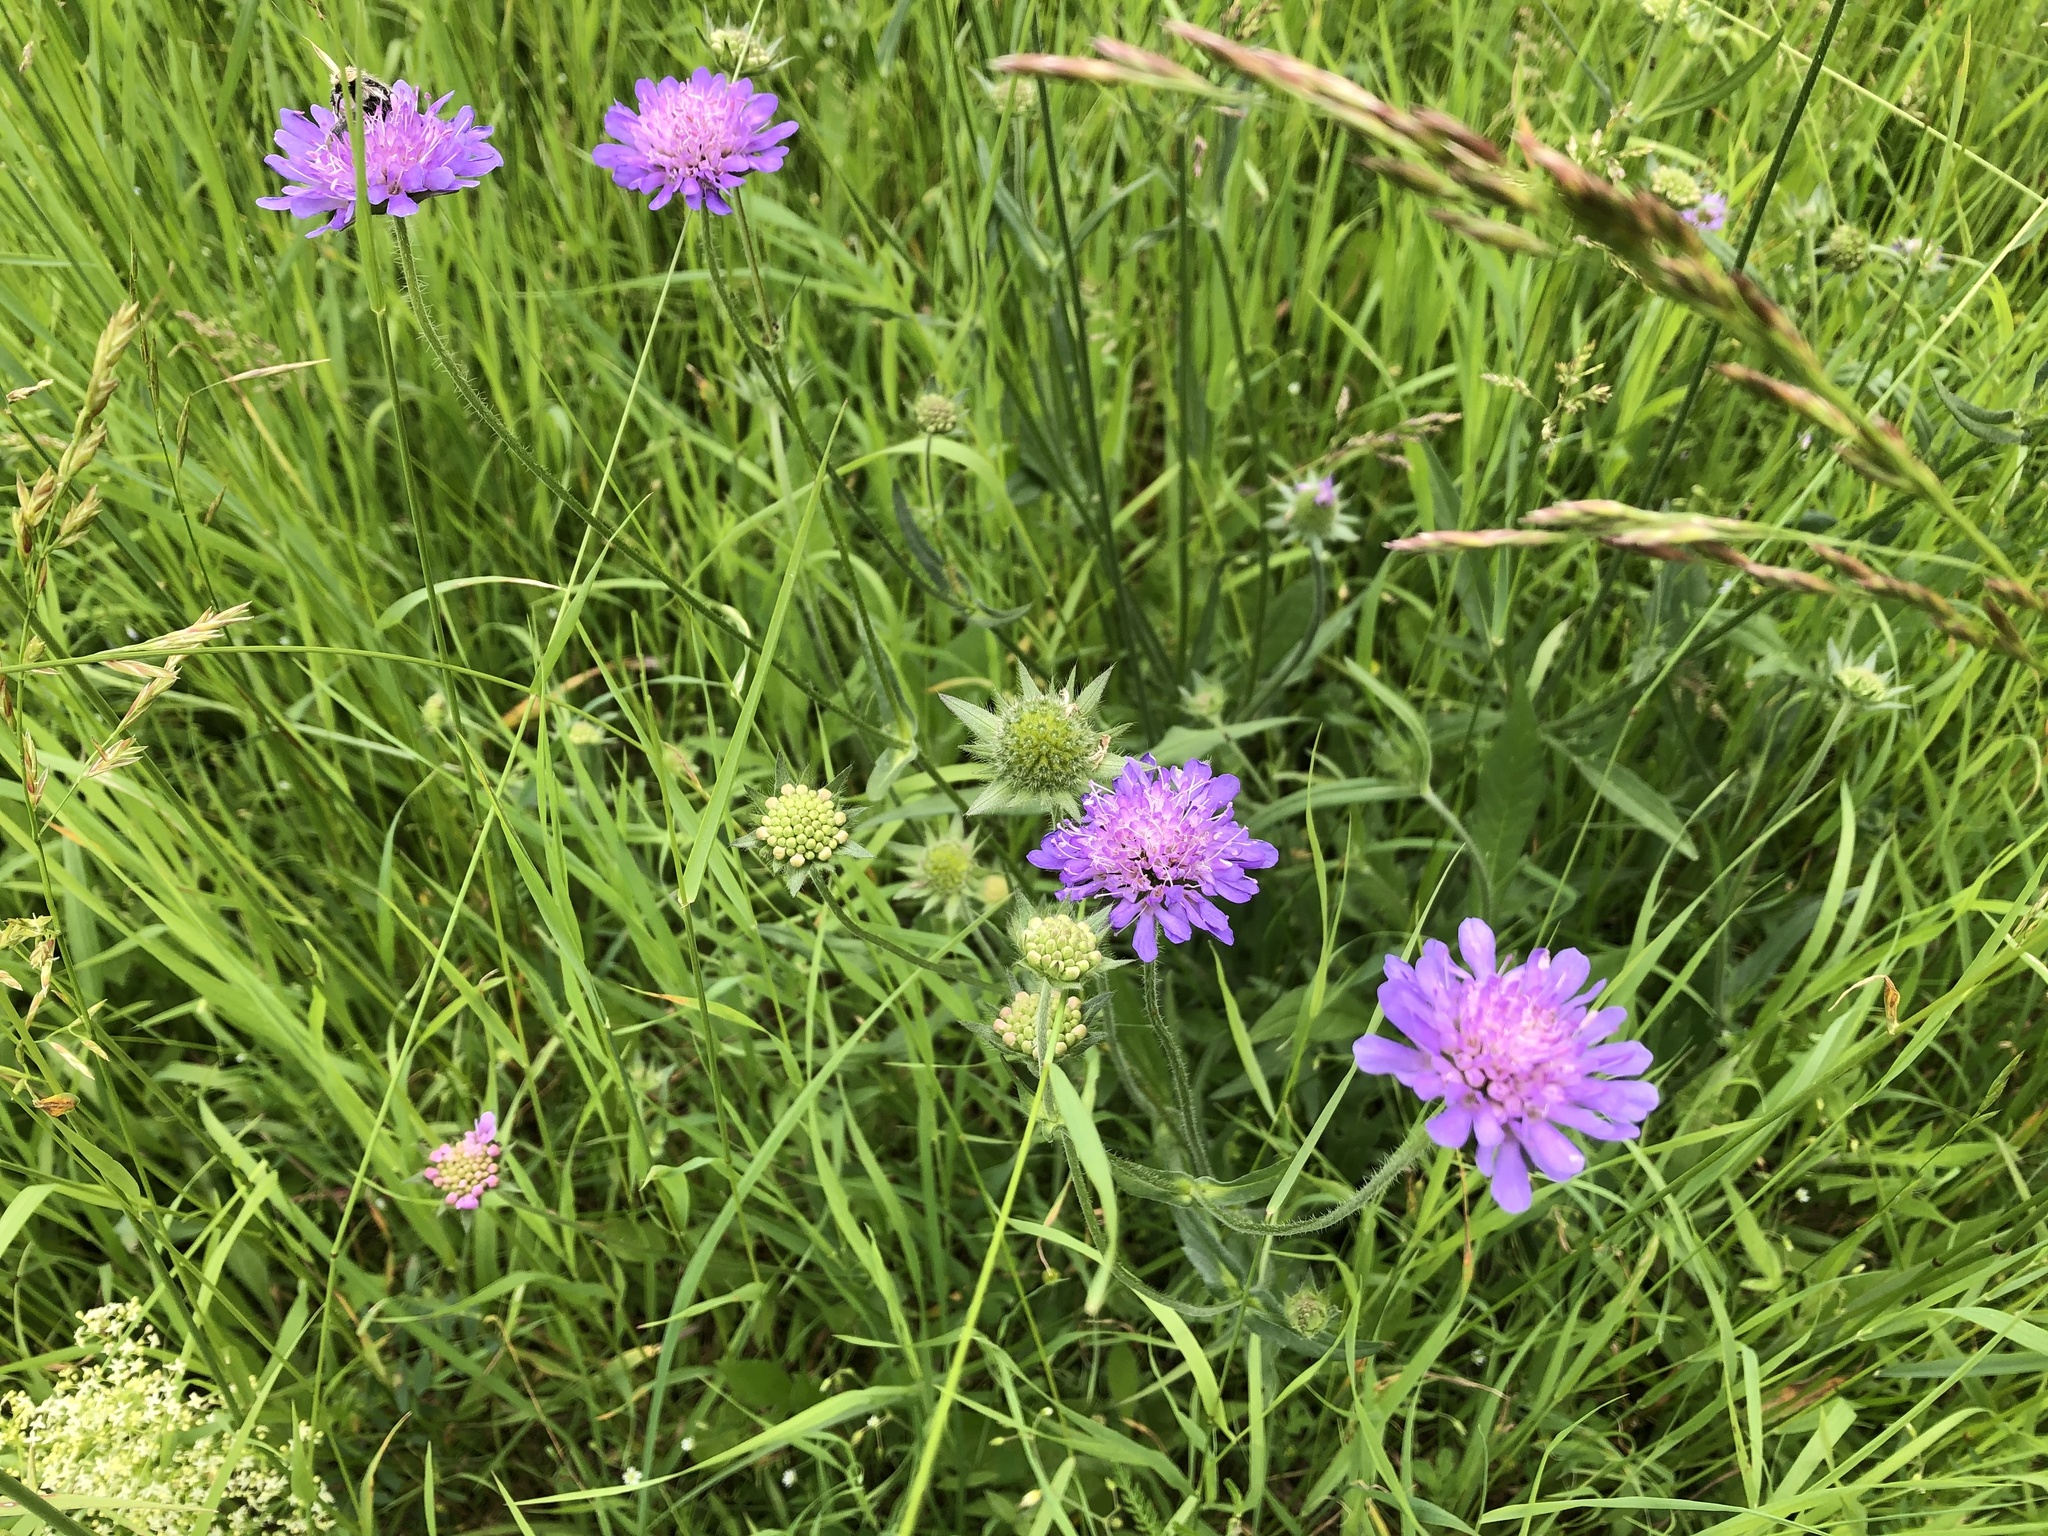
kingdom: Plantae
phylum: Tracheophyta
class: Magnoliopsida
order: Dipsacales
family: Caprifoliaceae
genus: Knautia
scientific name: Knautia arvensis
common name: Field scabiosa
